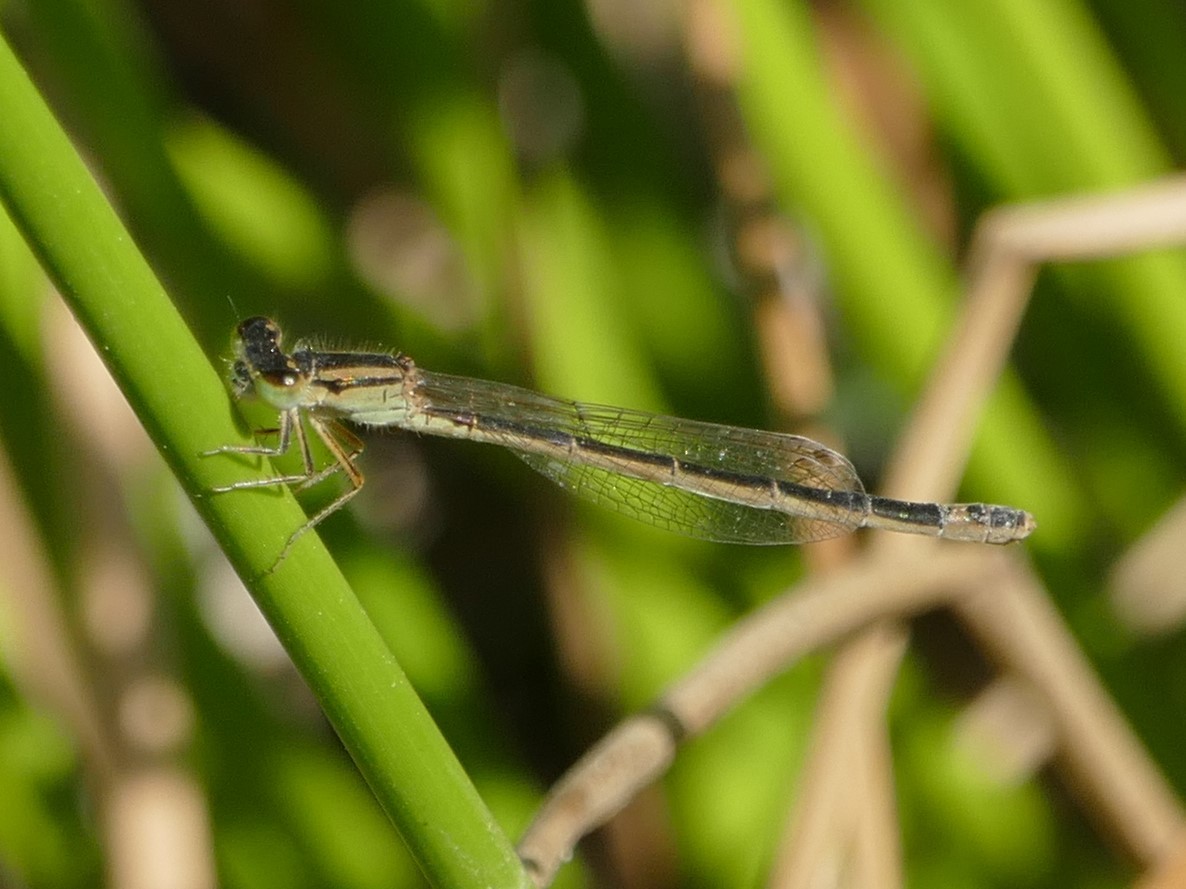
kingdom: Animalia
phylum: Arthropoda
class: Insecta
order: Odonata
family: Coenagrionidae
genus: Ischnura
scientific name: Ischnura graellsii
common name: Iberian bluetail
